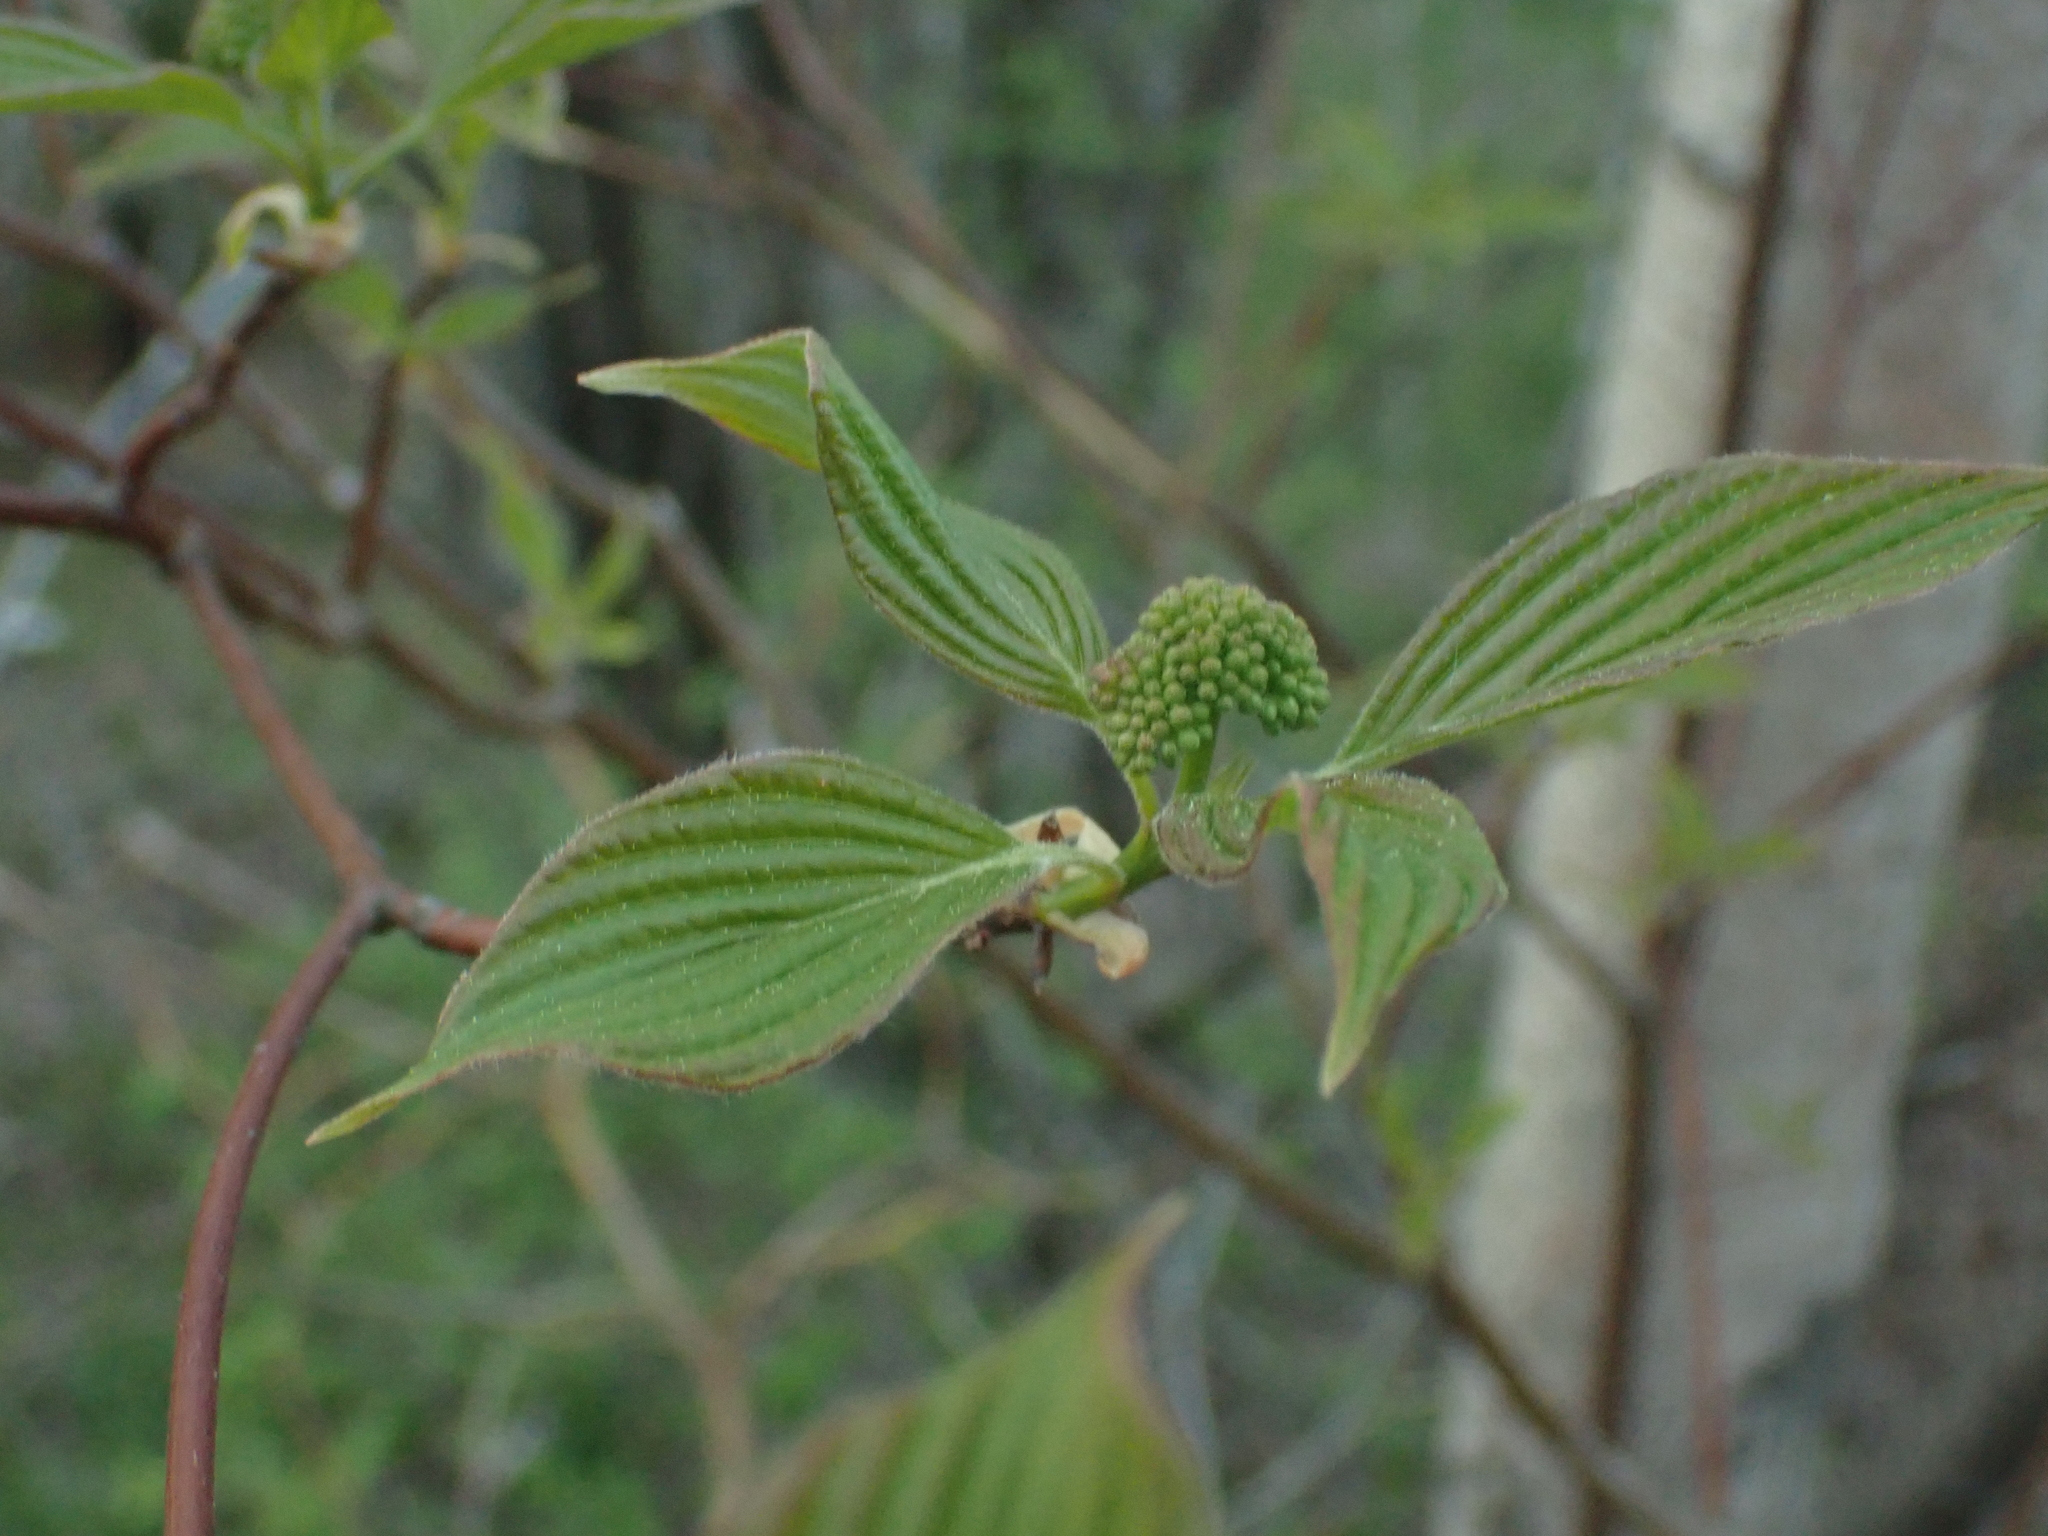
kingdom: Plantae
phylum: Tracheophyta
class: Magnoliopsida
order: Cornales
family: Cornaceae
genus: Cornus
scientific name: Cornus alternifolia
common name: Pagoda dogwood
